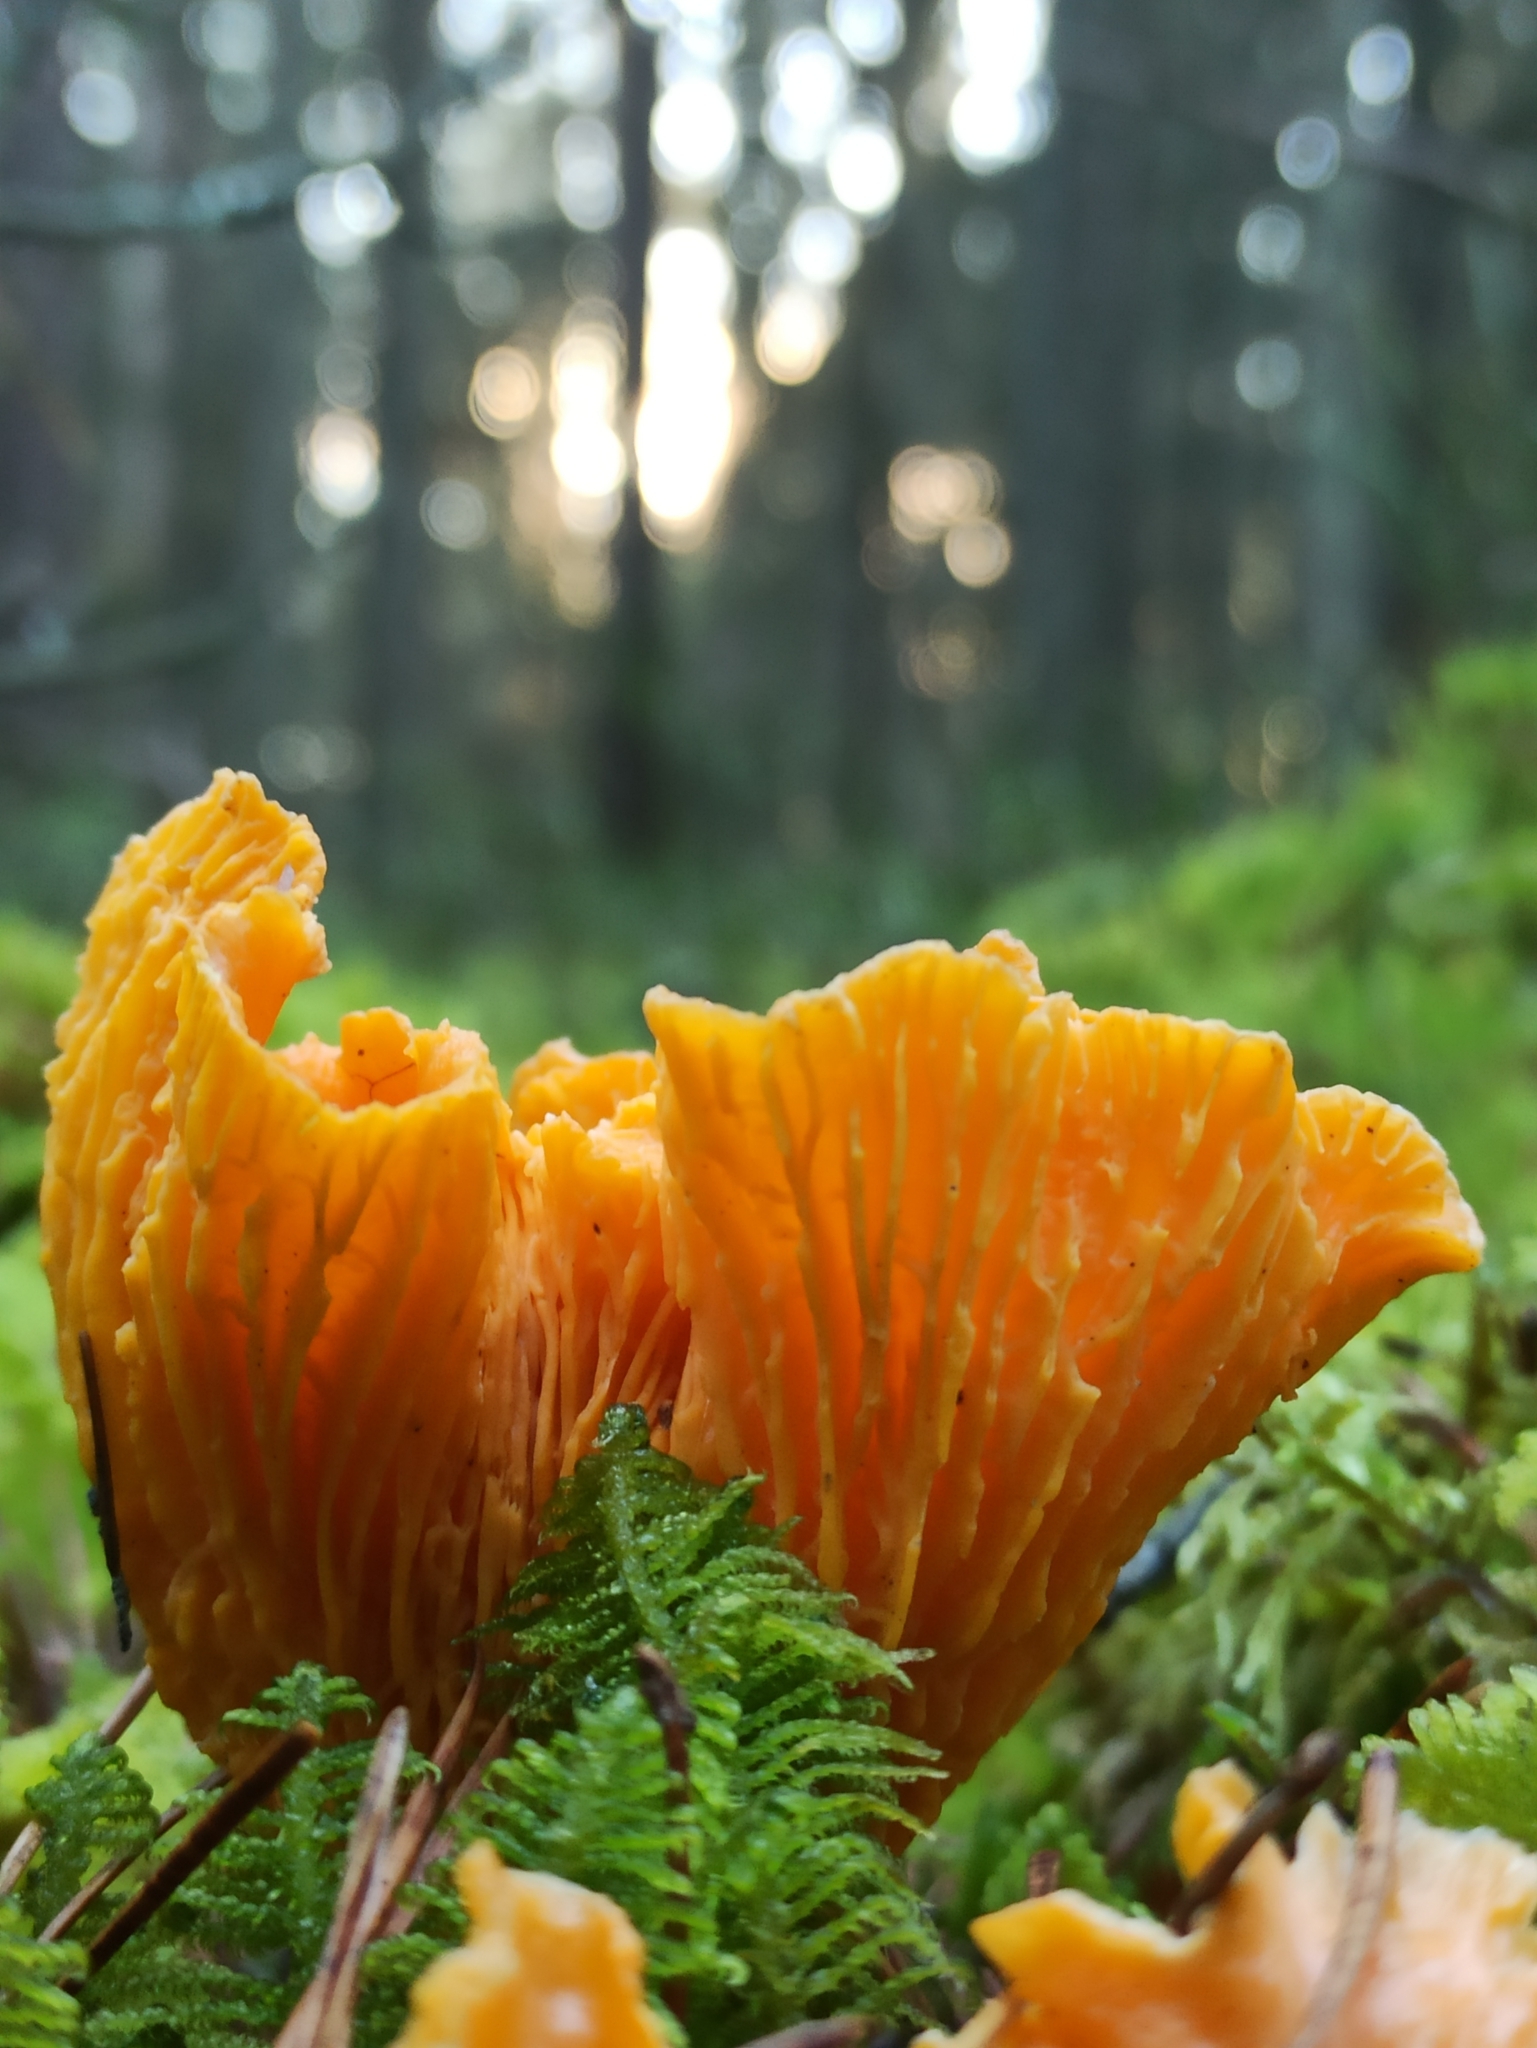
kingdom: Fungi
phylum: Basidiomycota
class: Agaricomycetes
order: Cantharellales
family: Hydnaceae
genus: Cantharellus
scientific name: Cantharellus cibarius
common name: Chanterelle
